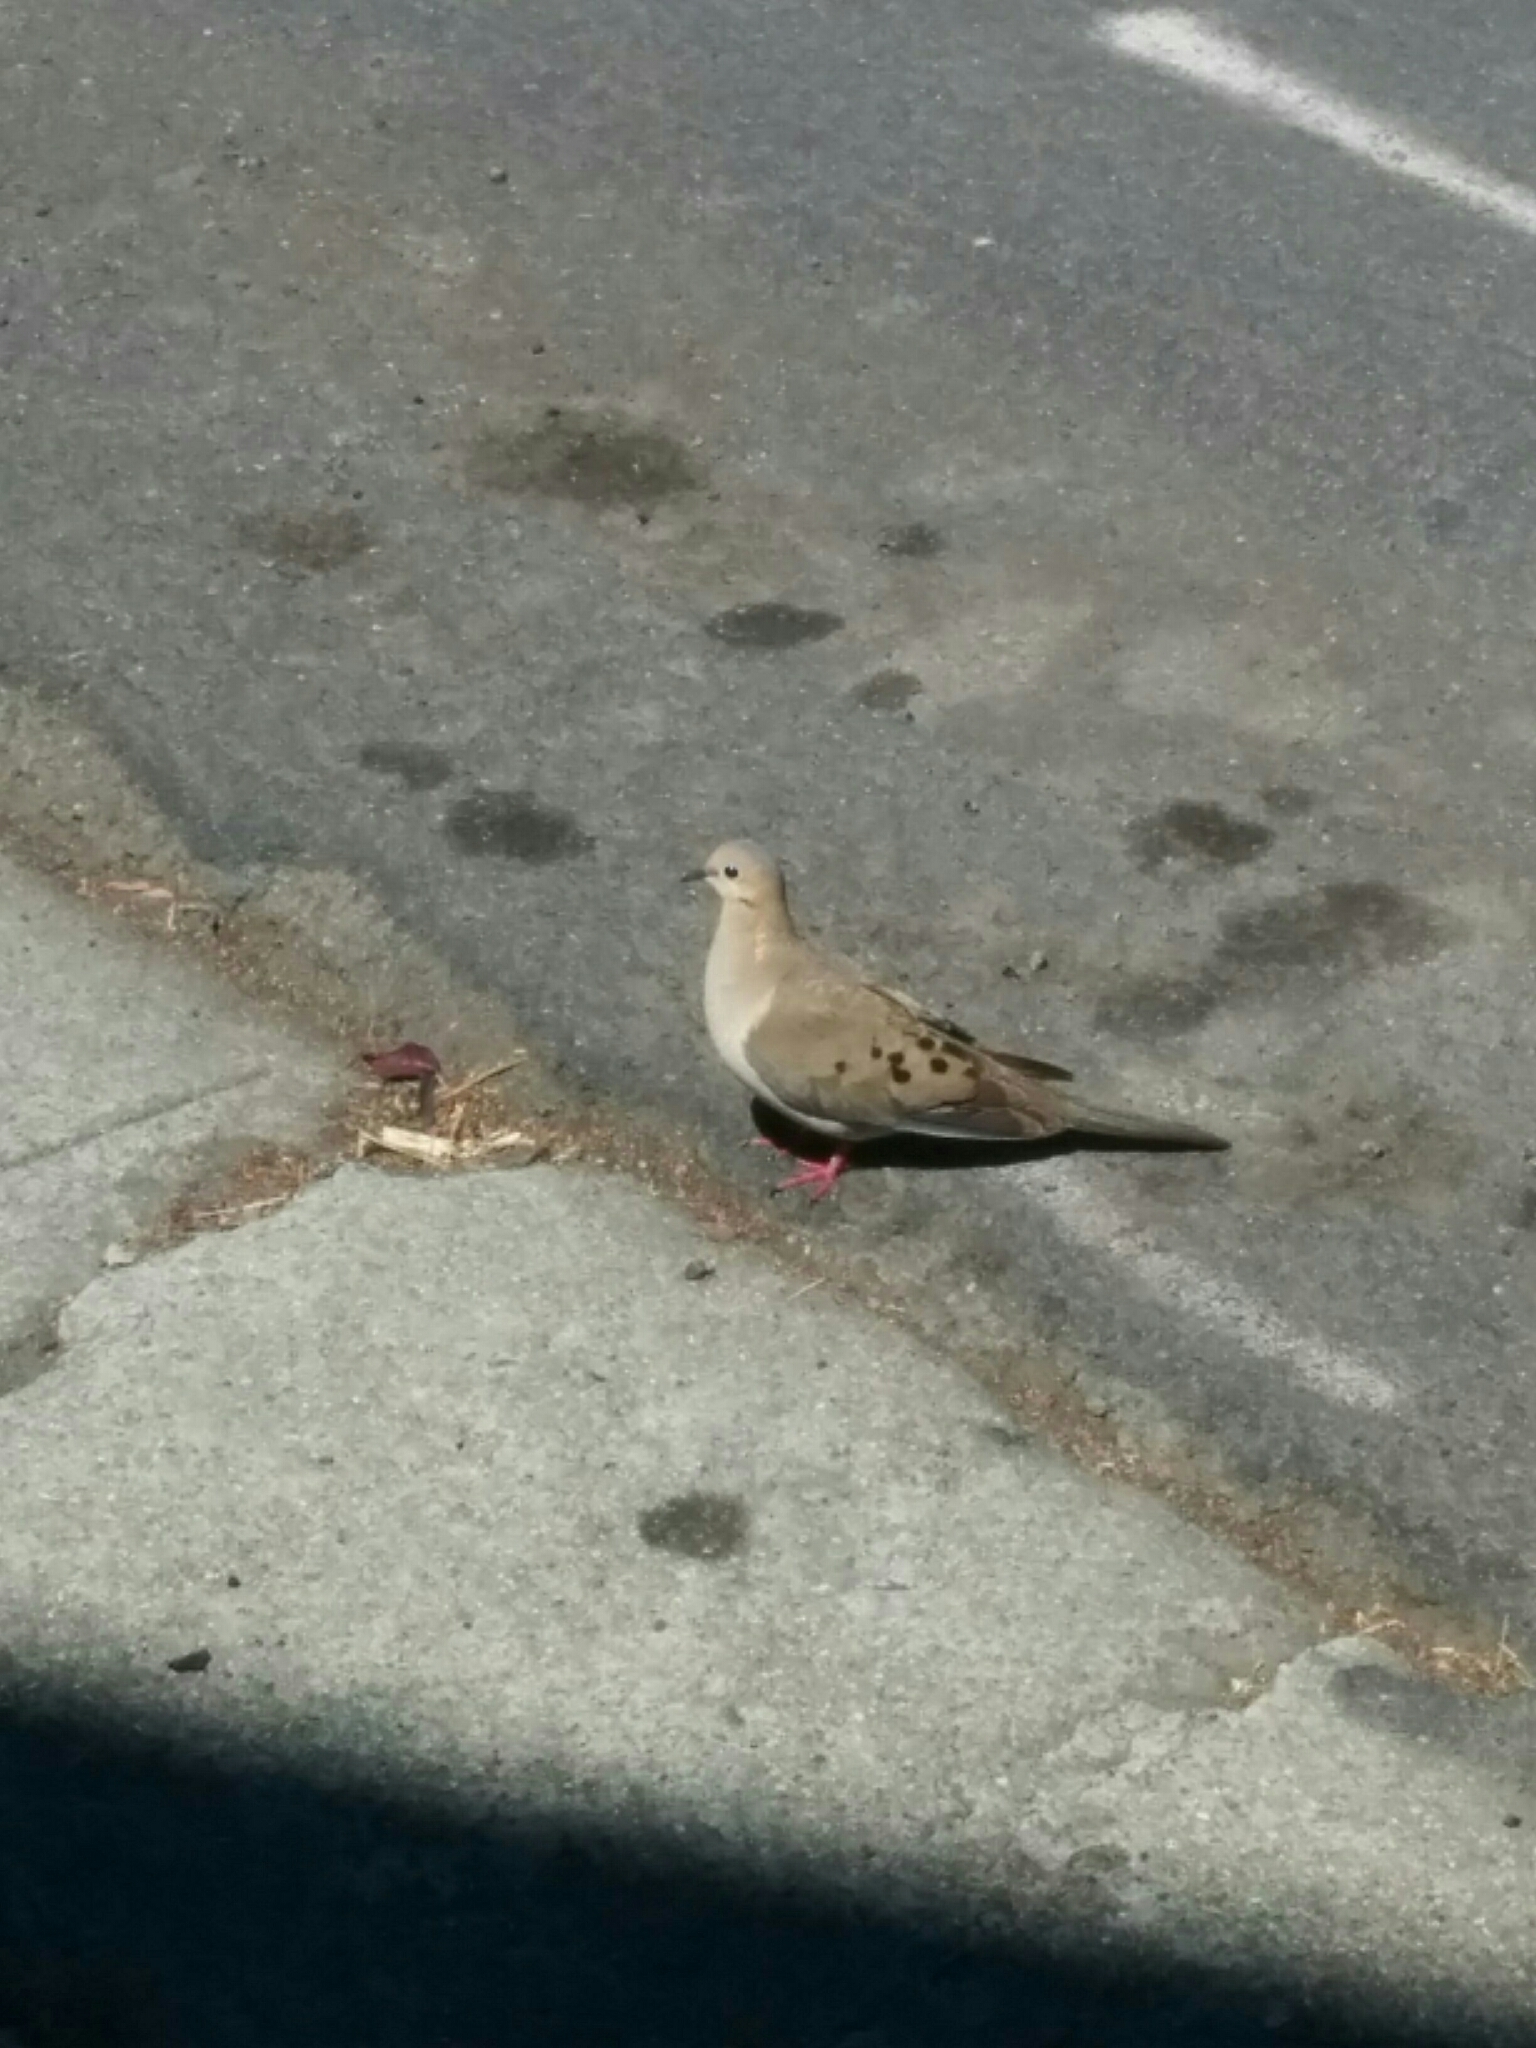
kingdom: Animalia
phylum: Chordata
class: Aves
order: Columbiformes
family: Columbidae
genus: Zenaida
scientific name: Zenaida macroura
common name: Mourning dove
